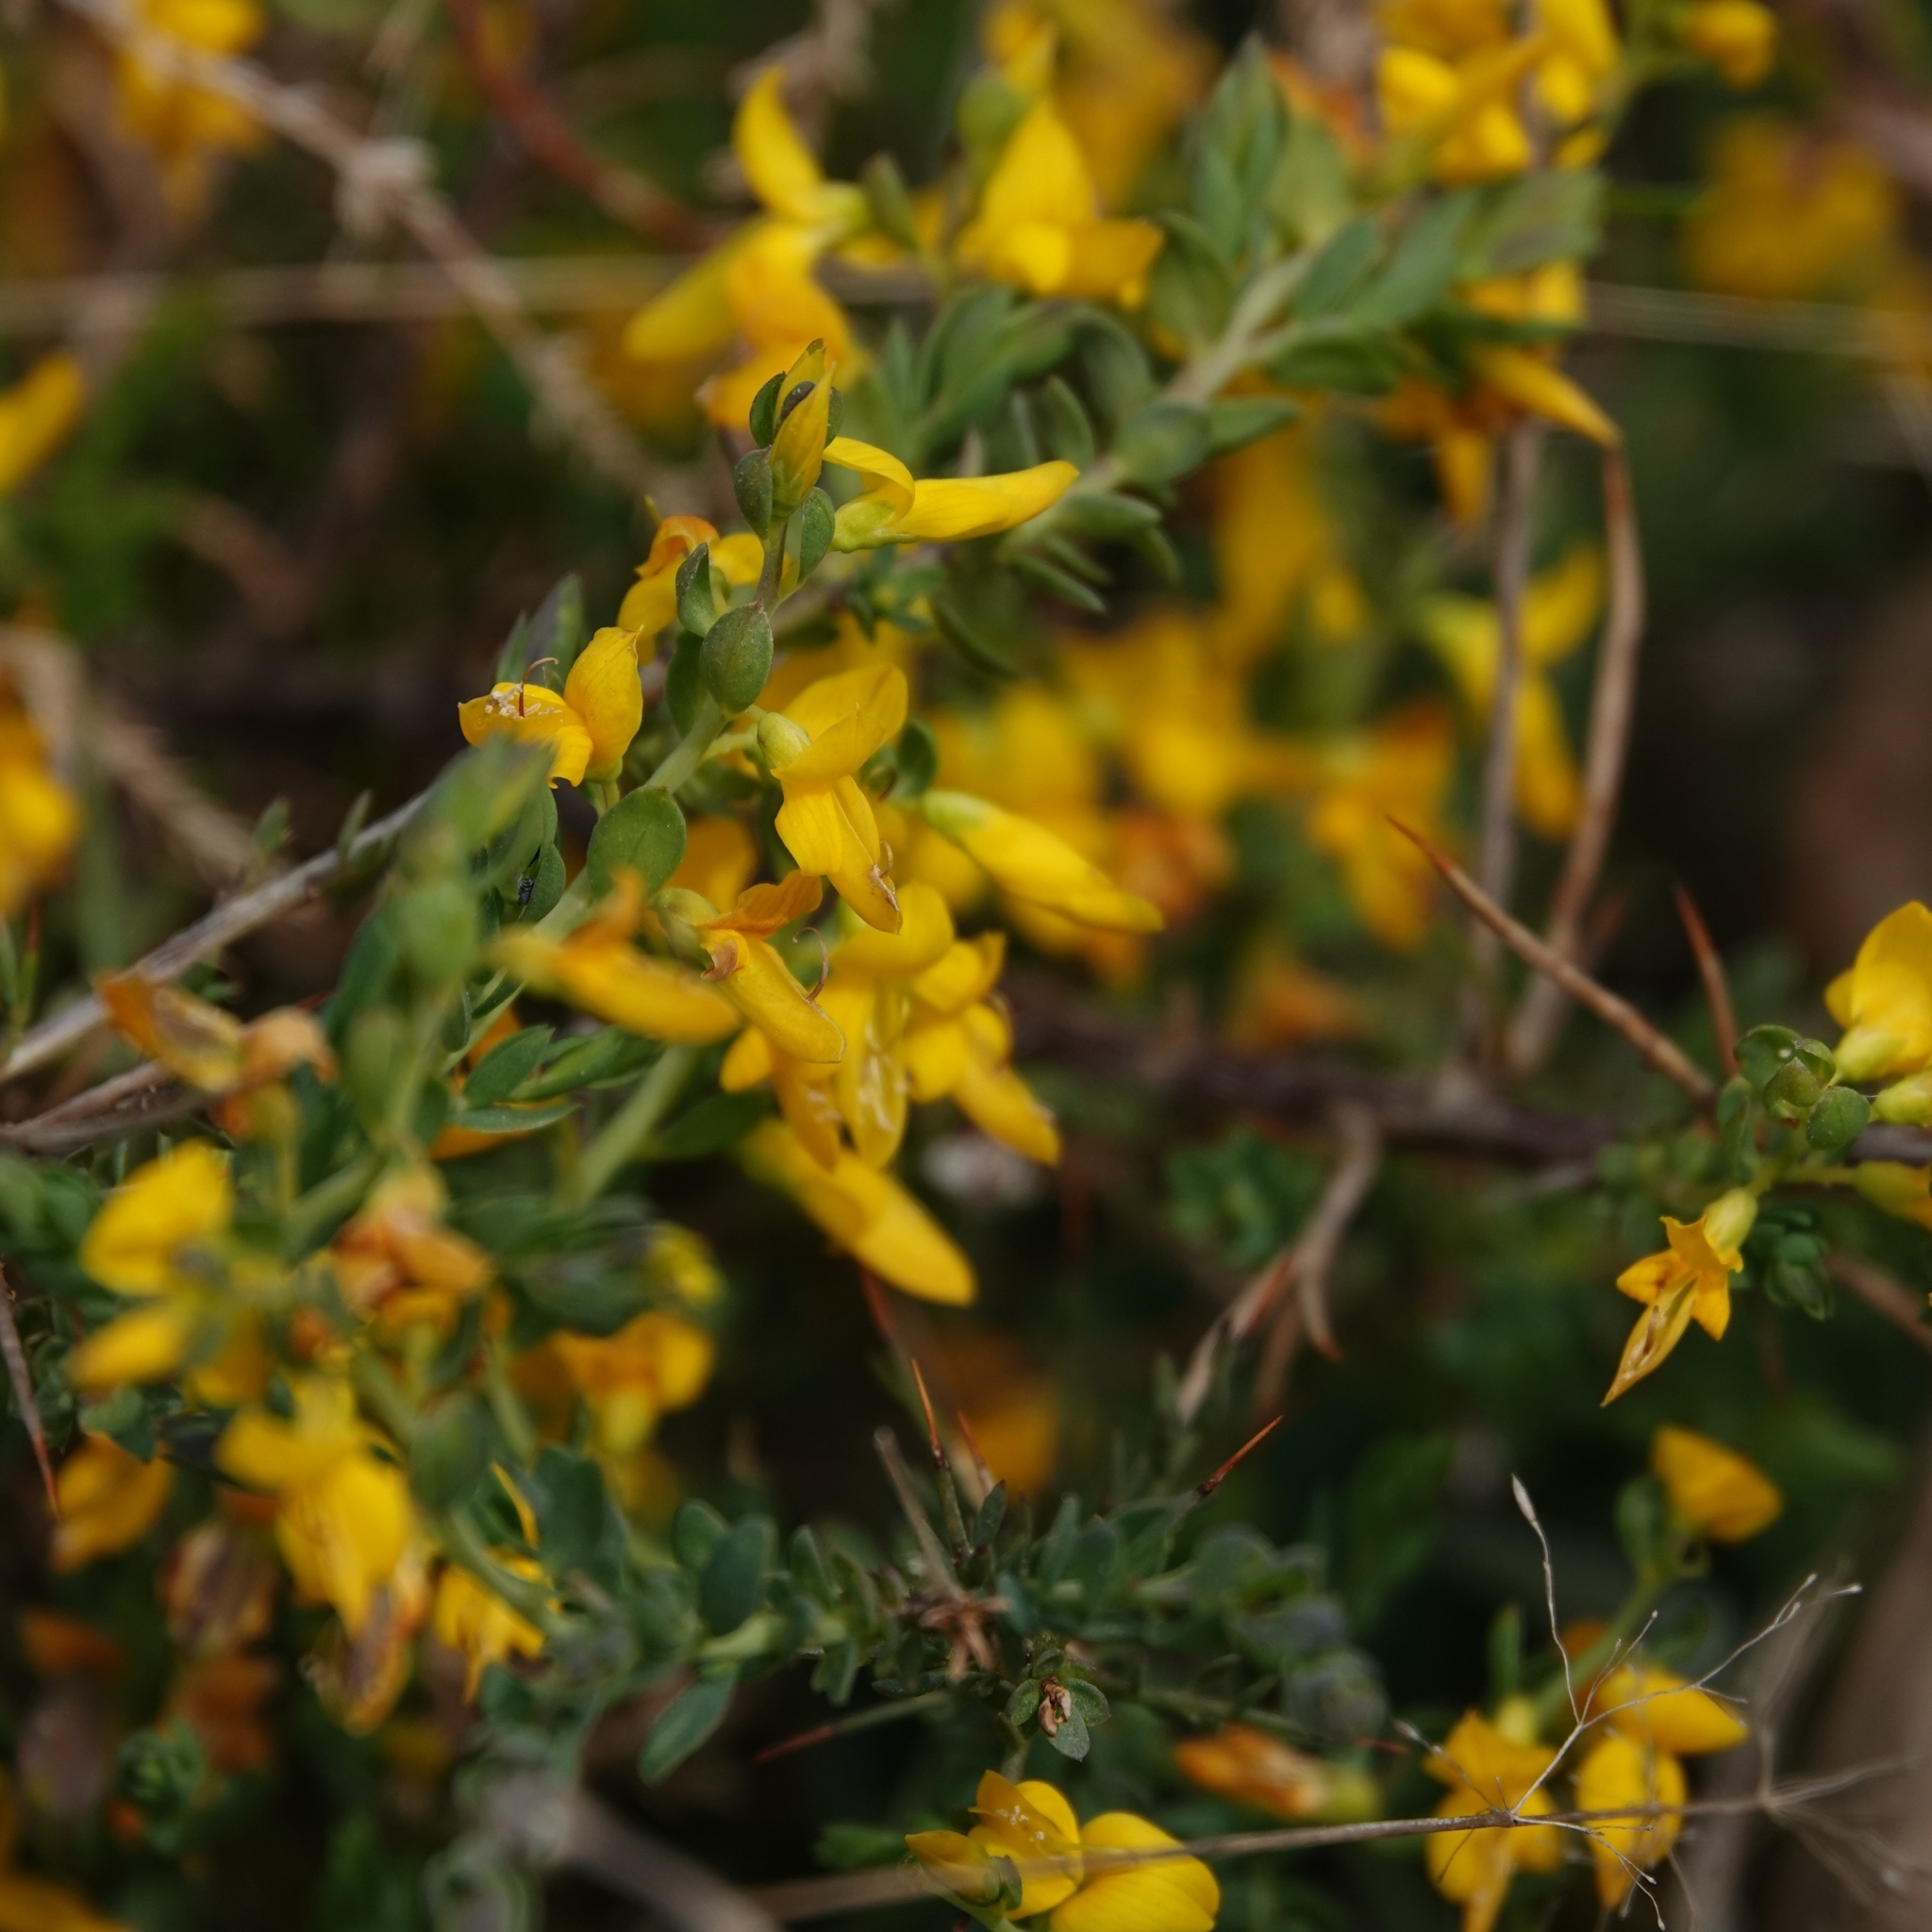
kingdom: Plantae
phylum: Tracheophyta
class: Magnoliopsida
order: Fabales
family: Fabaceae
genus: Genista
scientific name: Genista anglica
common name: Petty whin
